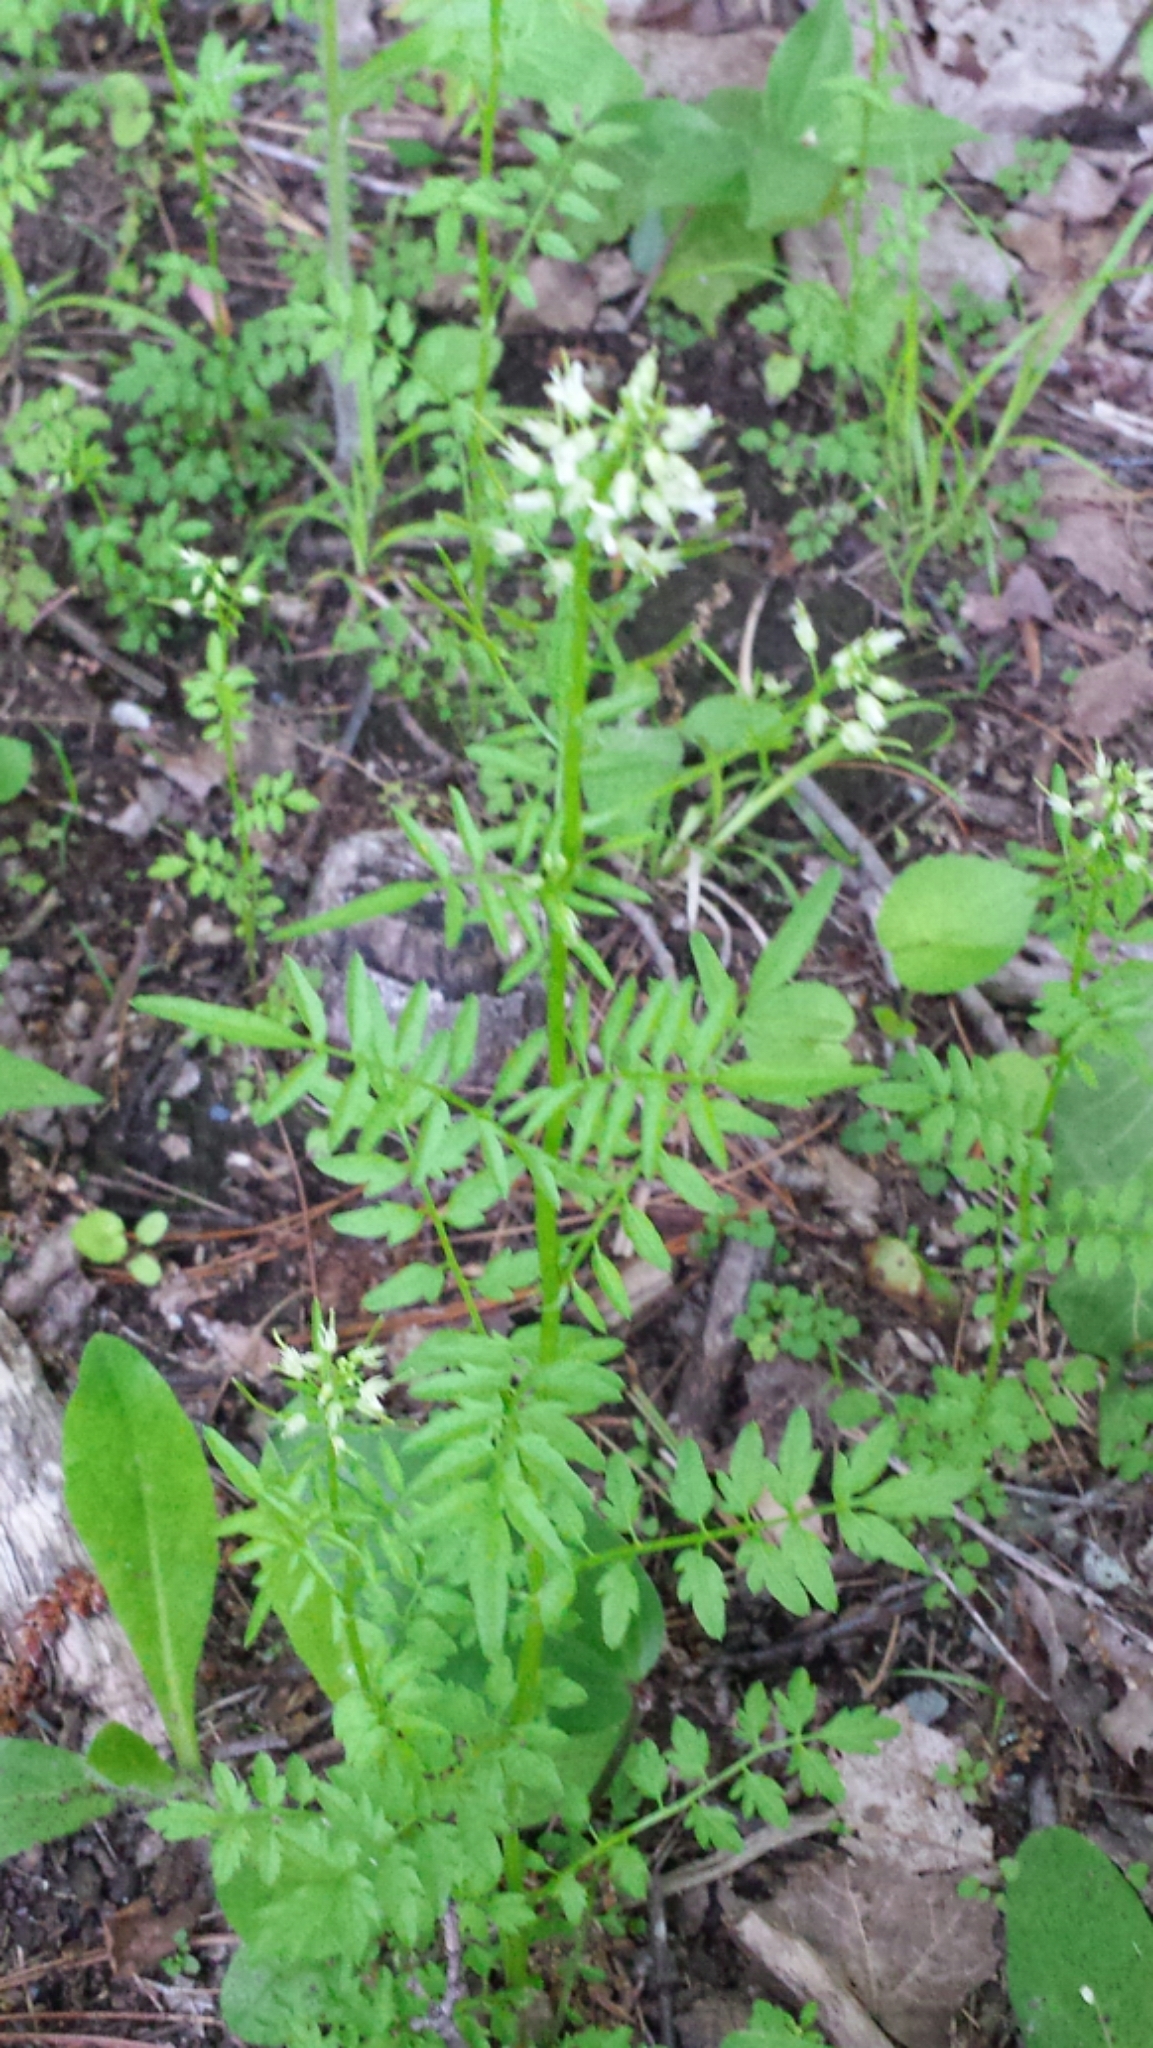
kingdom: Plantae
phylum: Tracheophyta
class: Magnoliopsida
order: Brassicales
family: Brassicaceae
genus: Cardamine
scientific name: Cardamine impatiens
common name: Narrow-leaved bitter-cress
